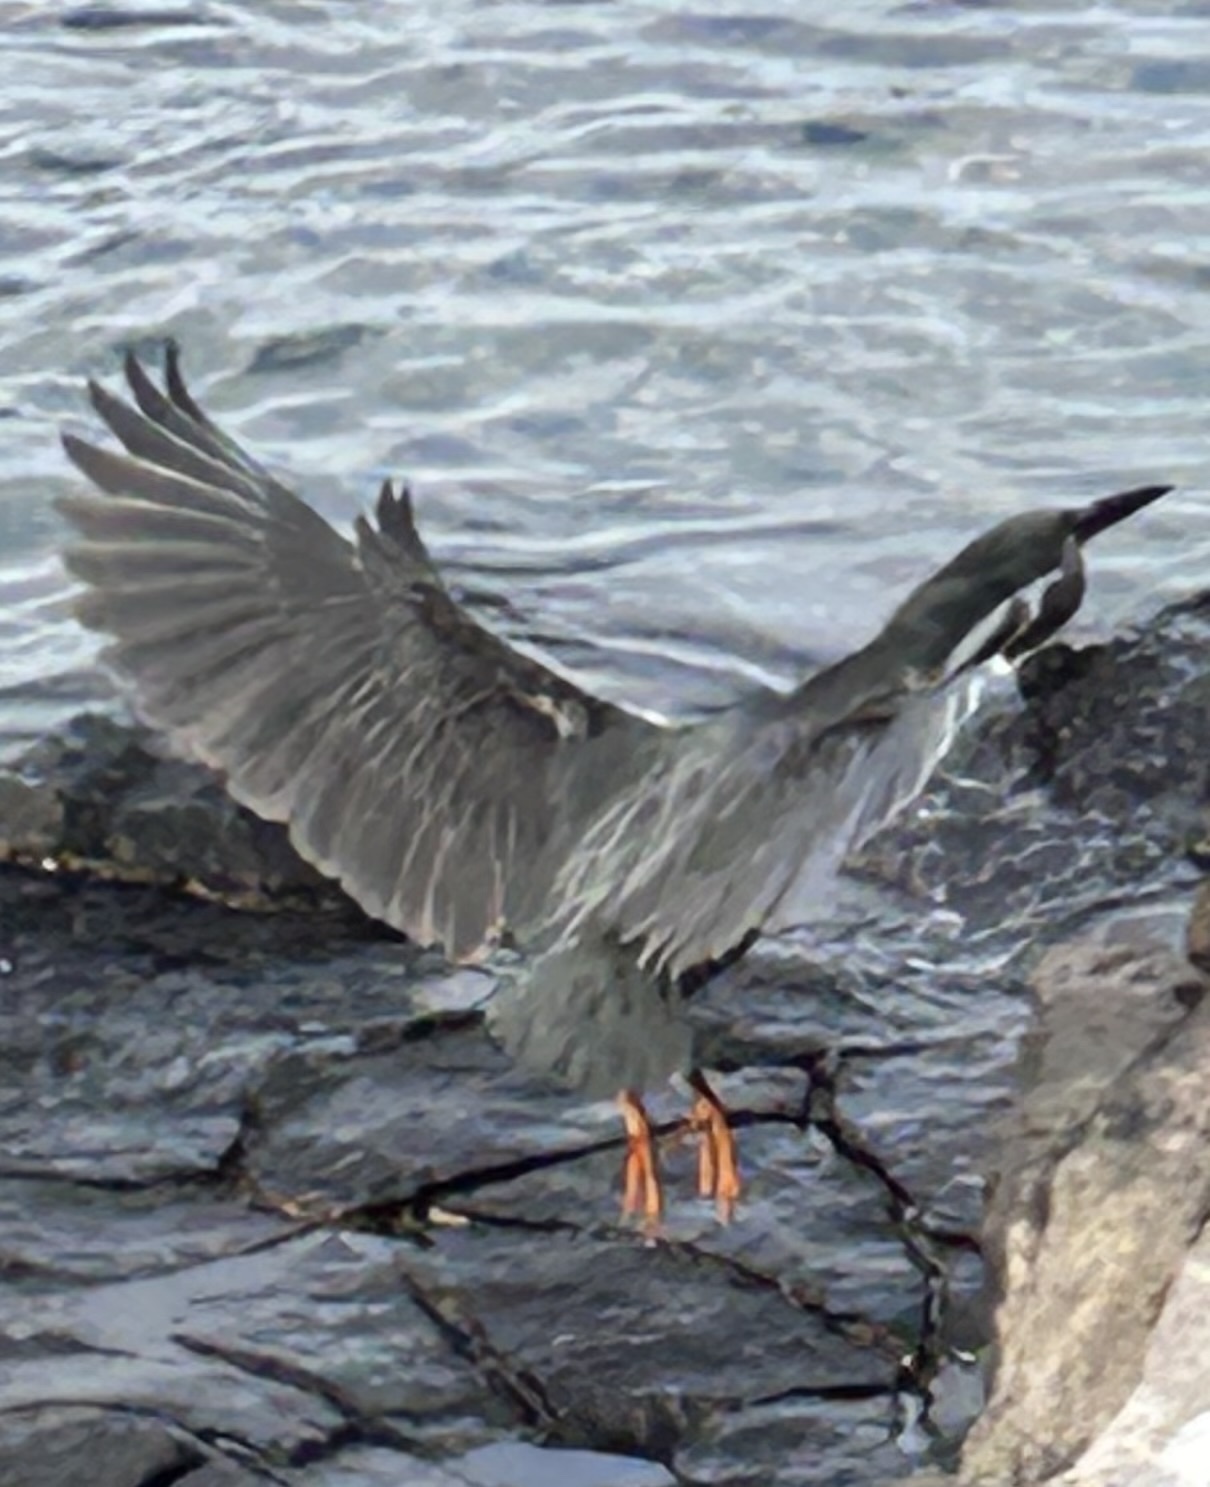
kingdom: Animalia
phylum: Chordata
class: Aves
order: Pelecaniformes
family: Ardeidae
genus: Butorides
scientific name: Butorides striata
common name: Striated heron
